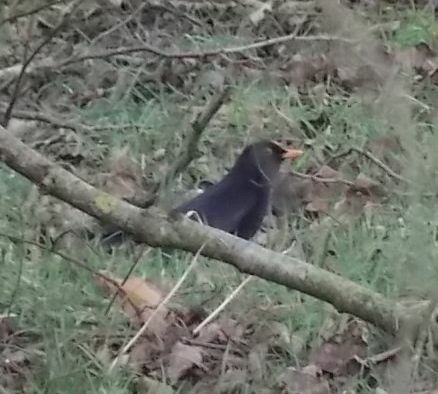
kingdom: Animalia
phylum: Chordata
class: Aves
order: Passeriformes
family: Turdidae
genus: Turdus
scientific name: Turdus merula
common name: Common blackbird
